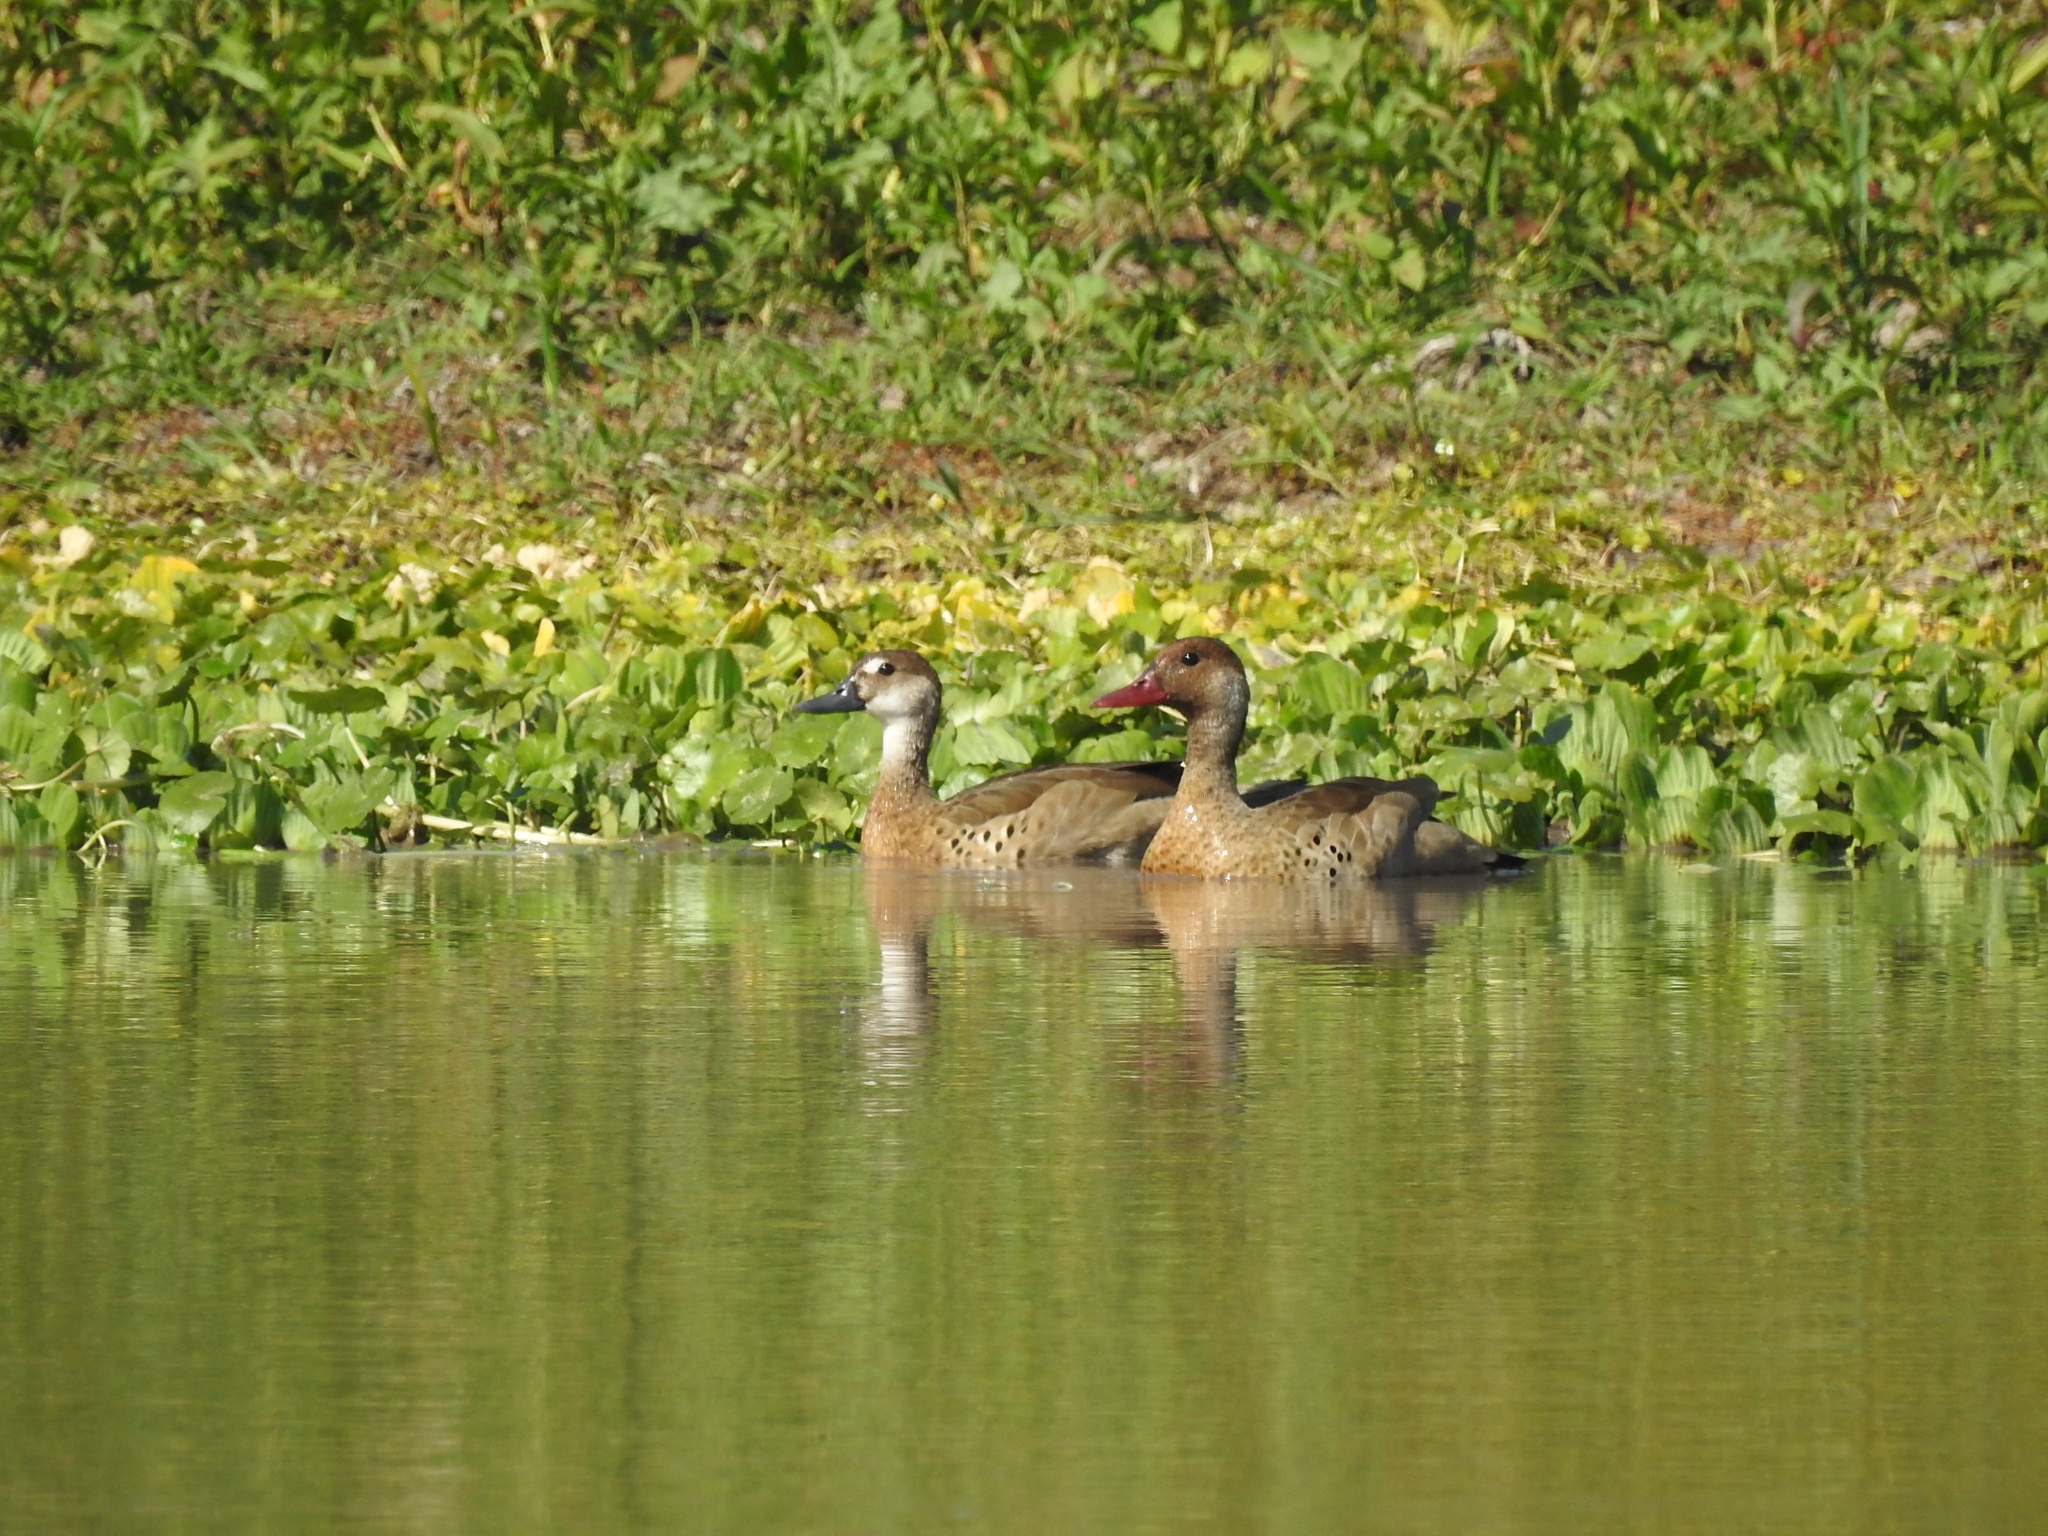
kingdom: Animalia
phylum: Chordata
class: Aves
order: Anseriformes
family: Anatidae
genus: Amazonetta
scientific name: Amazonetta brasiliensis
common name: Brazilian teal
